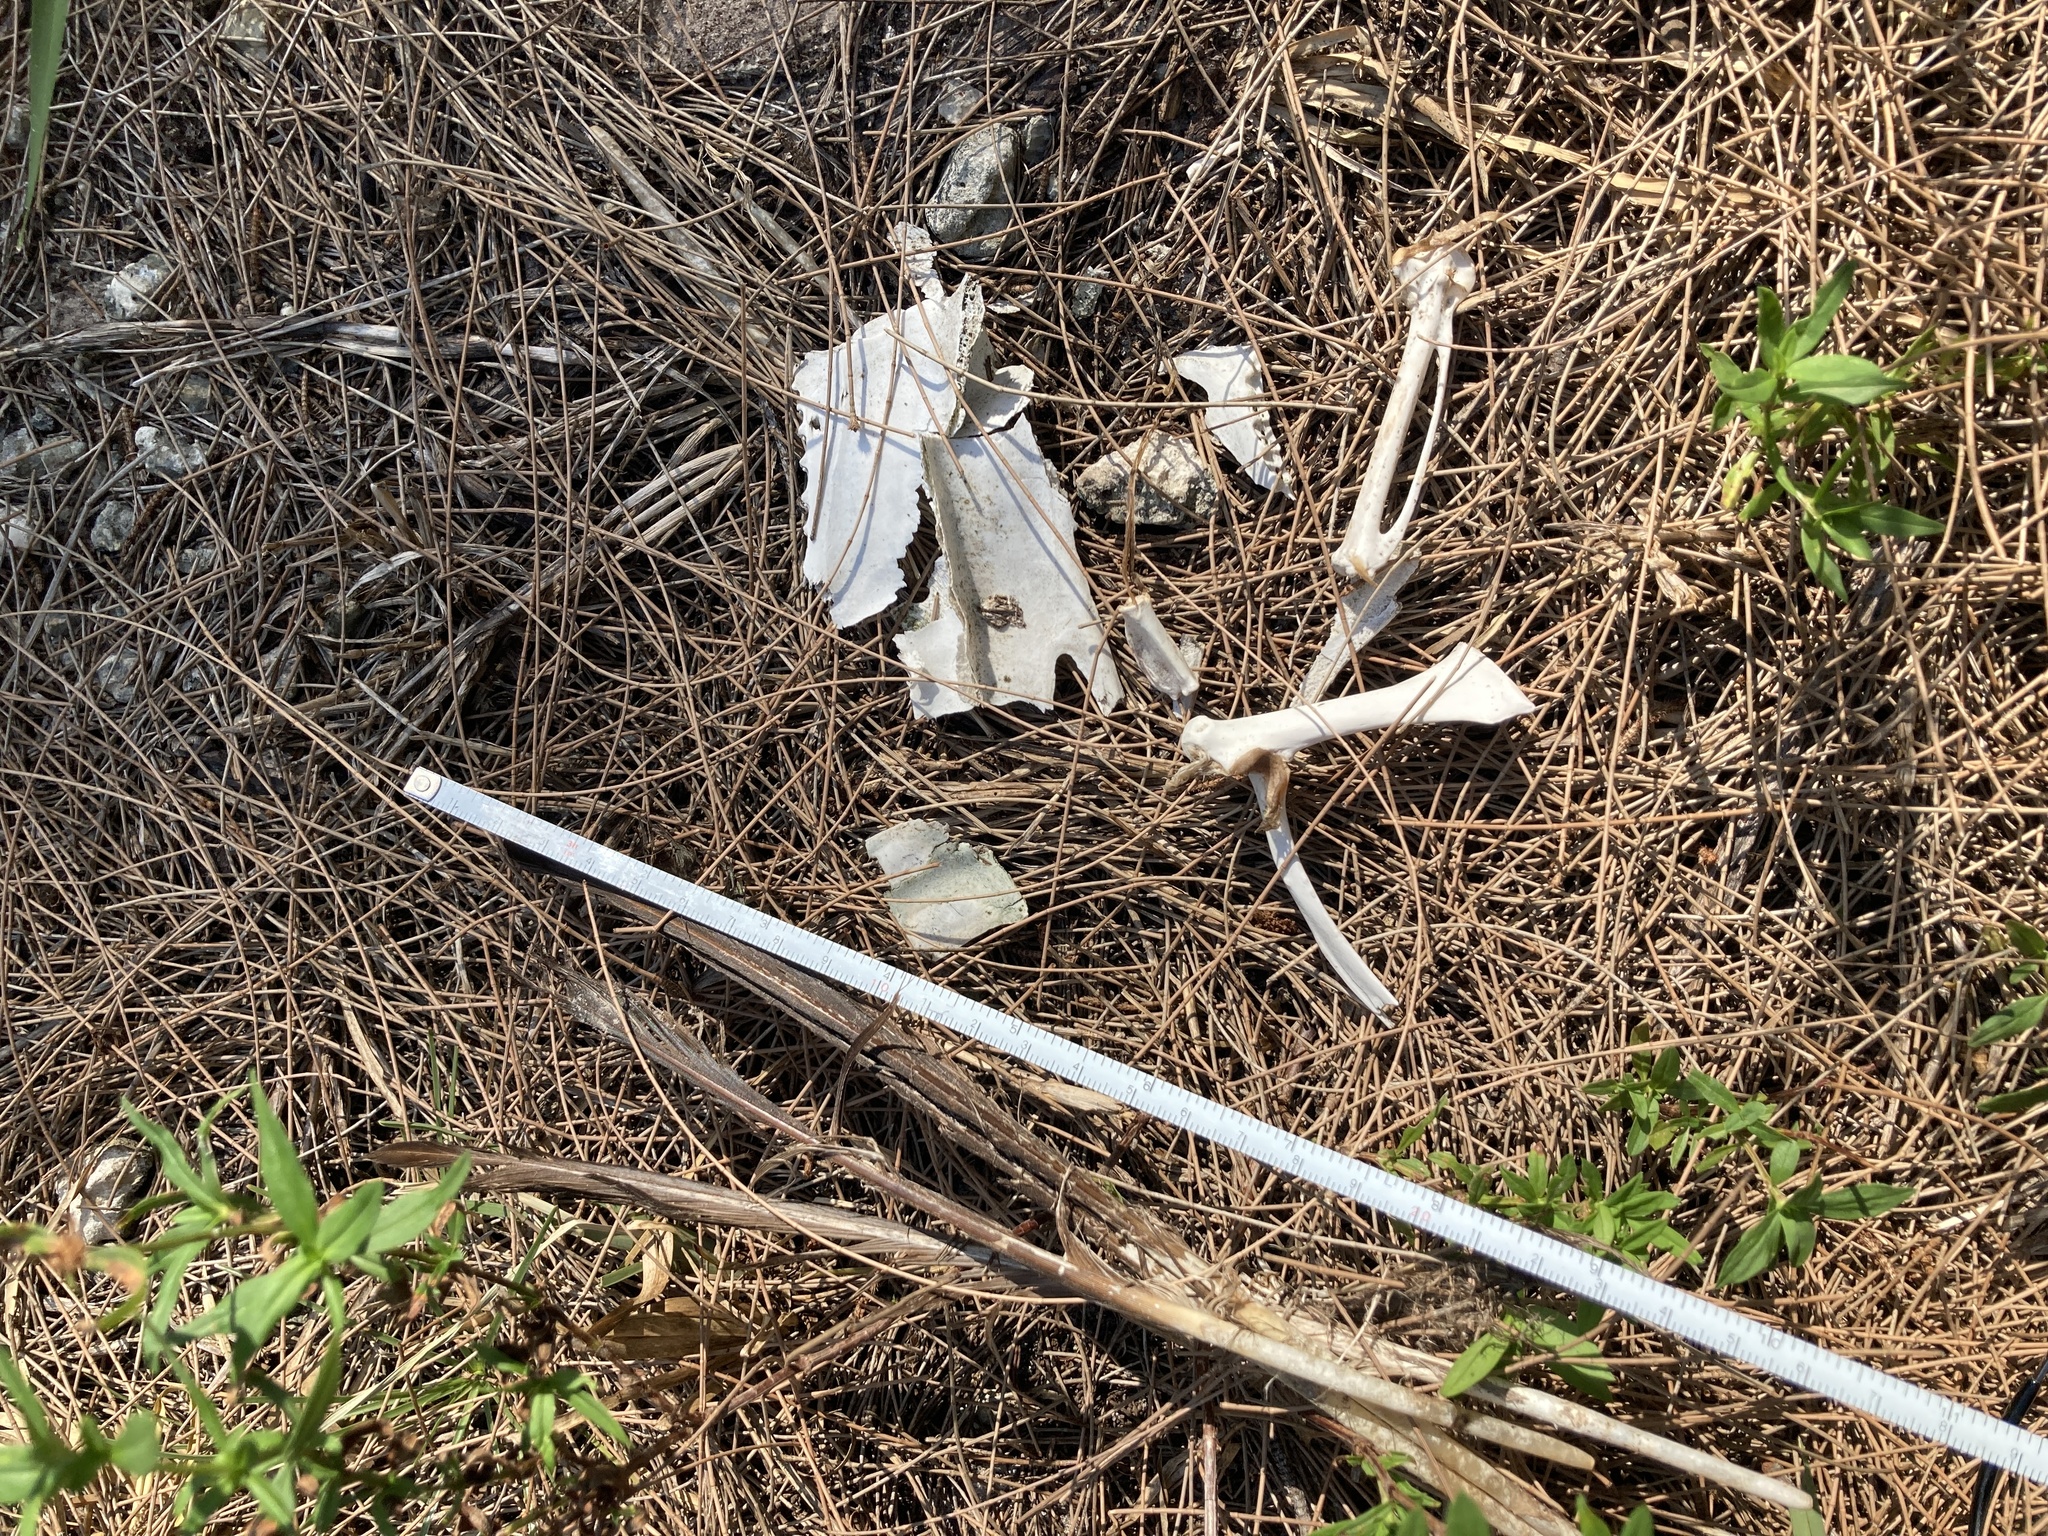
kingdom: Animalia
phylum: Chordata
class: Aves
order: Anseriformes
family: Anatidae
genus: Cairina
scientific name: Cairina moschata
